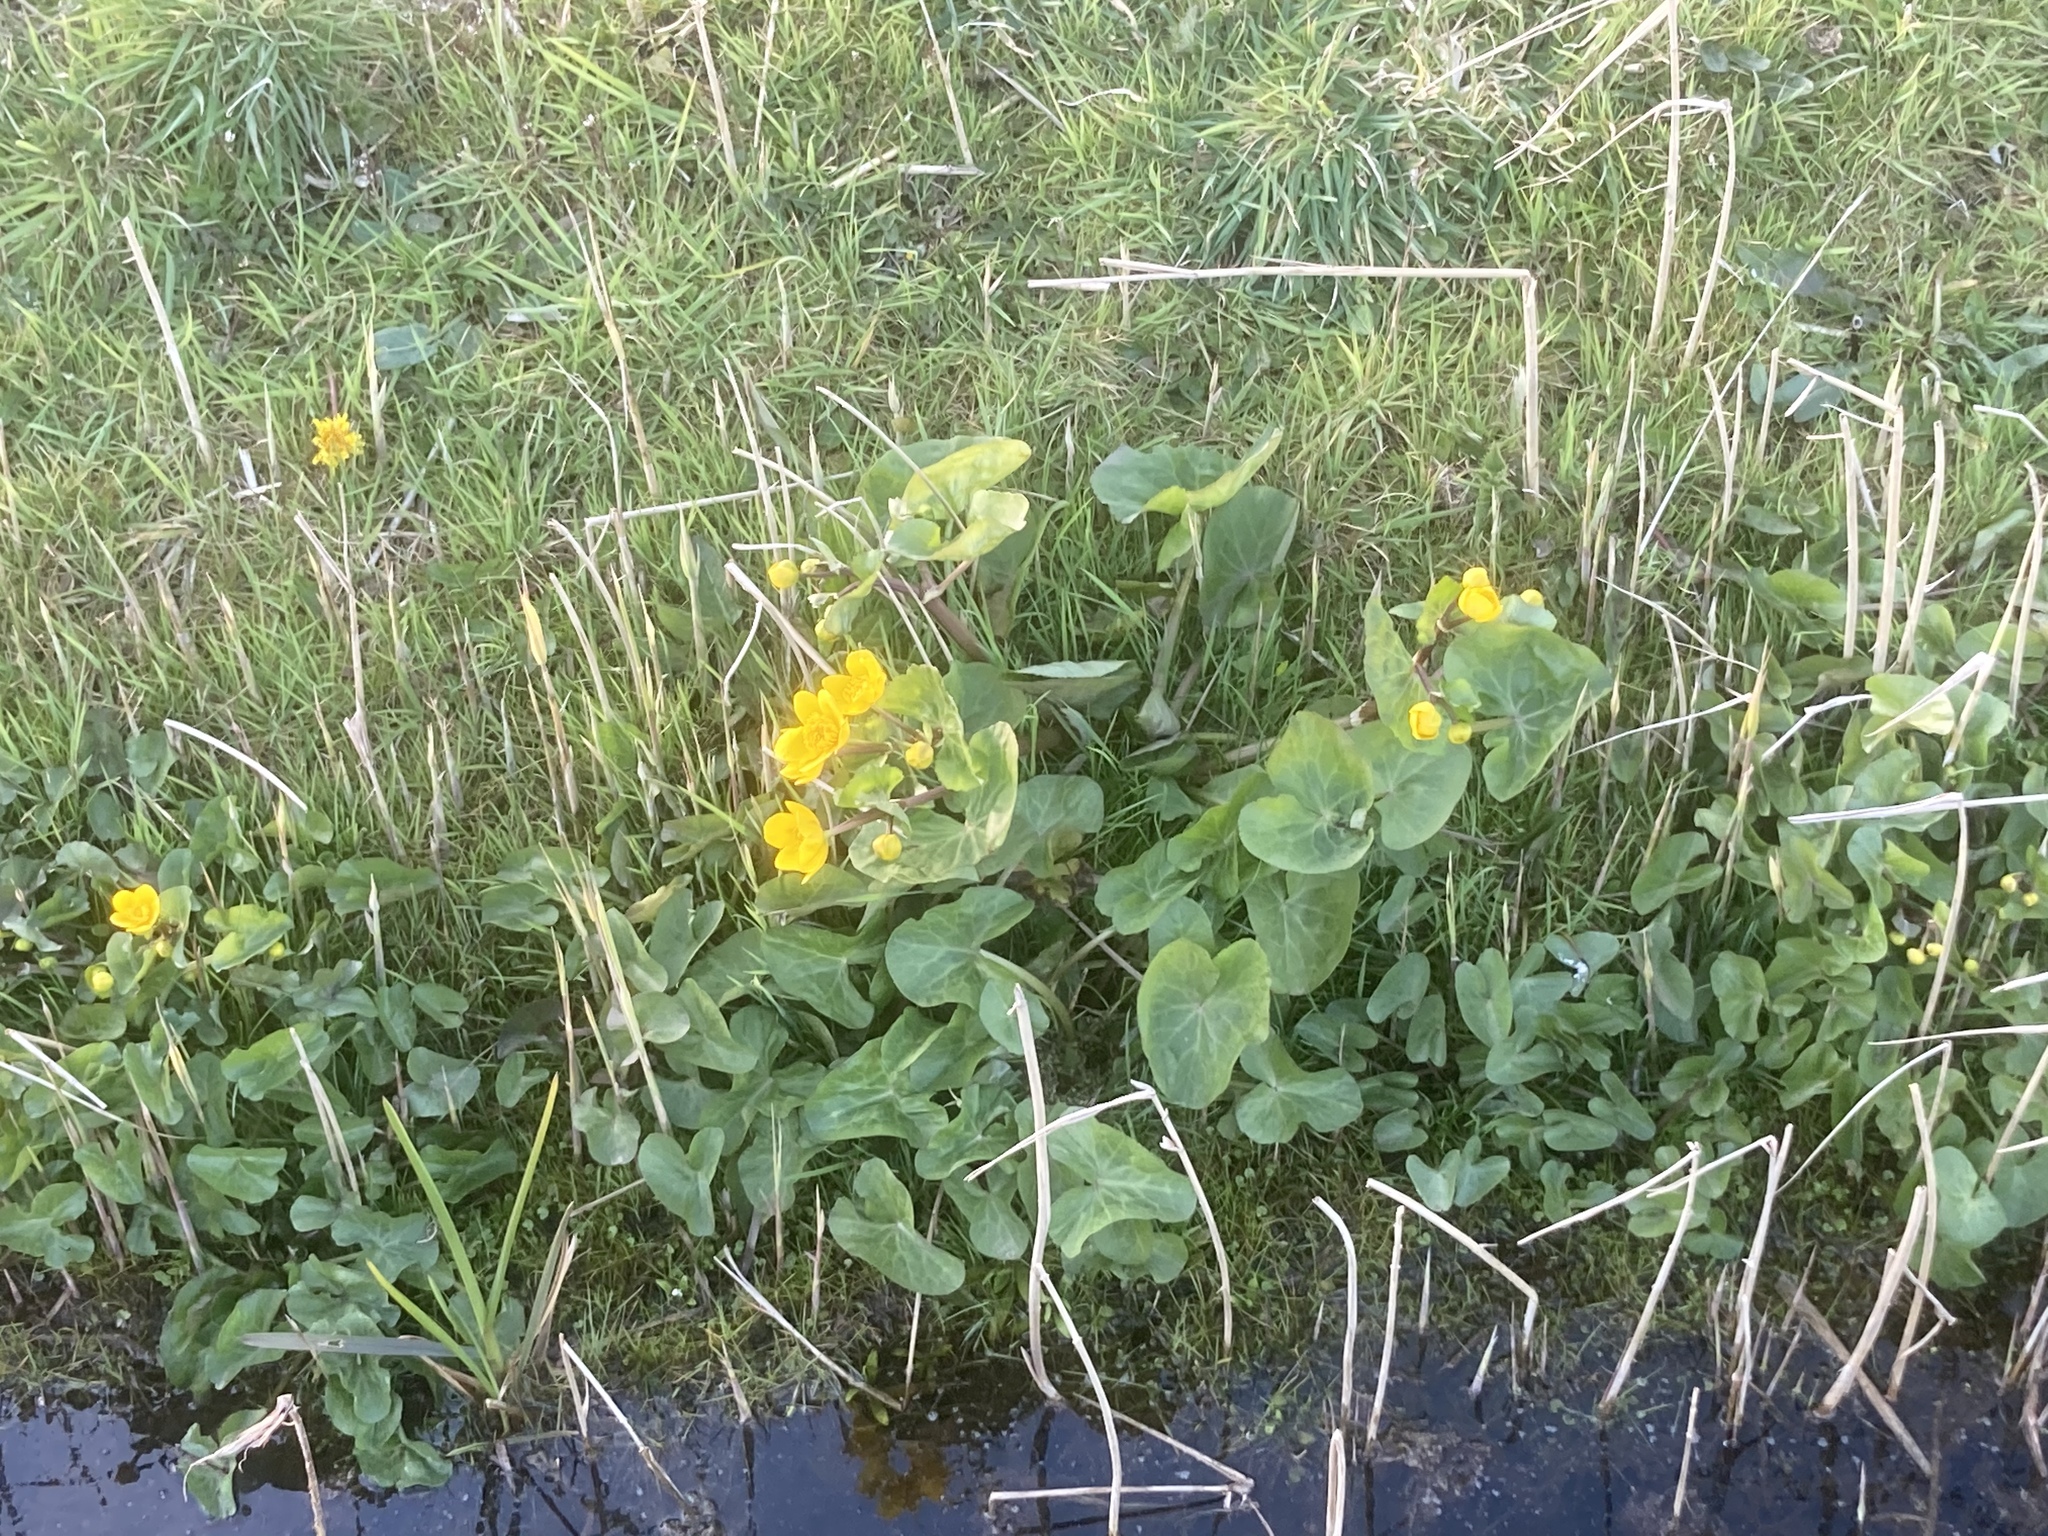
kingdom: Plantae
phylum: Tracheophyta
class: Magnoliopsida
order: Ranunculales
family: Ranunculaceae
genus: Caltha
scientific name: Caltha palustris
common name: Marsh marigold
